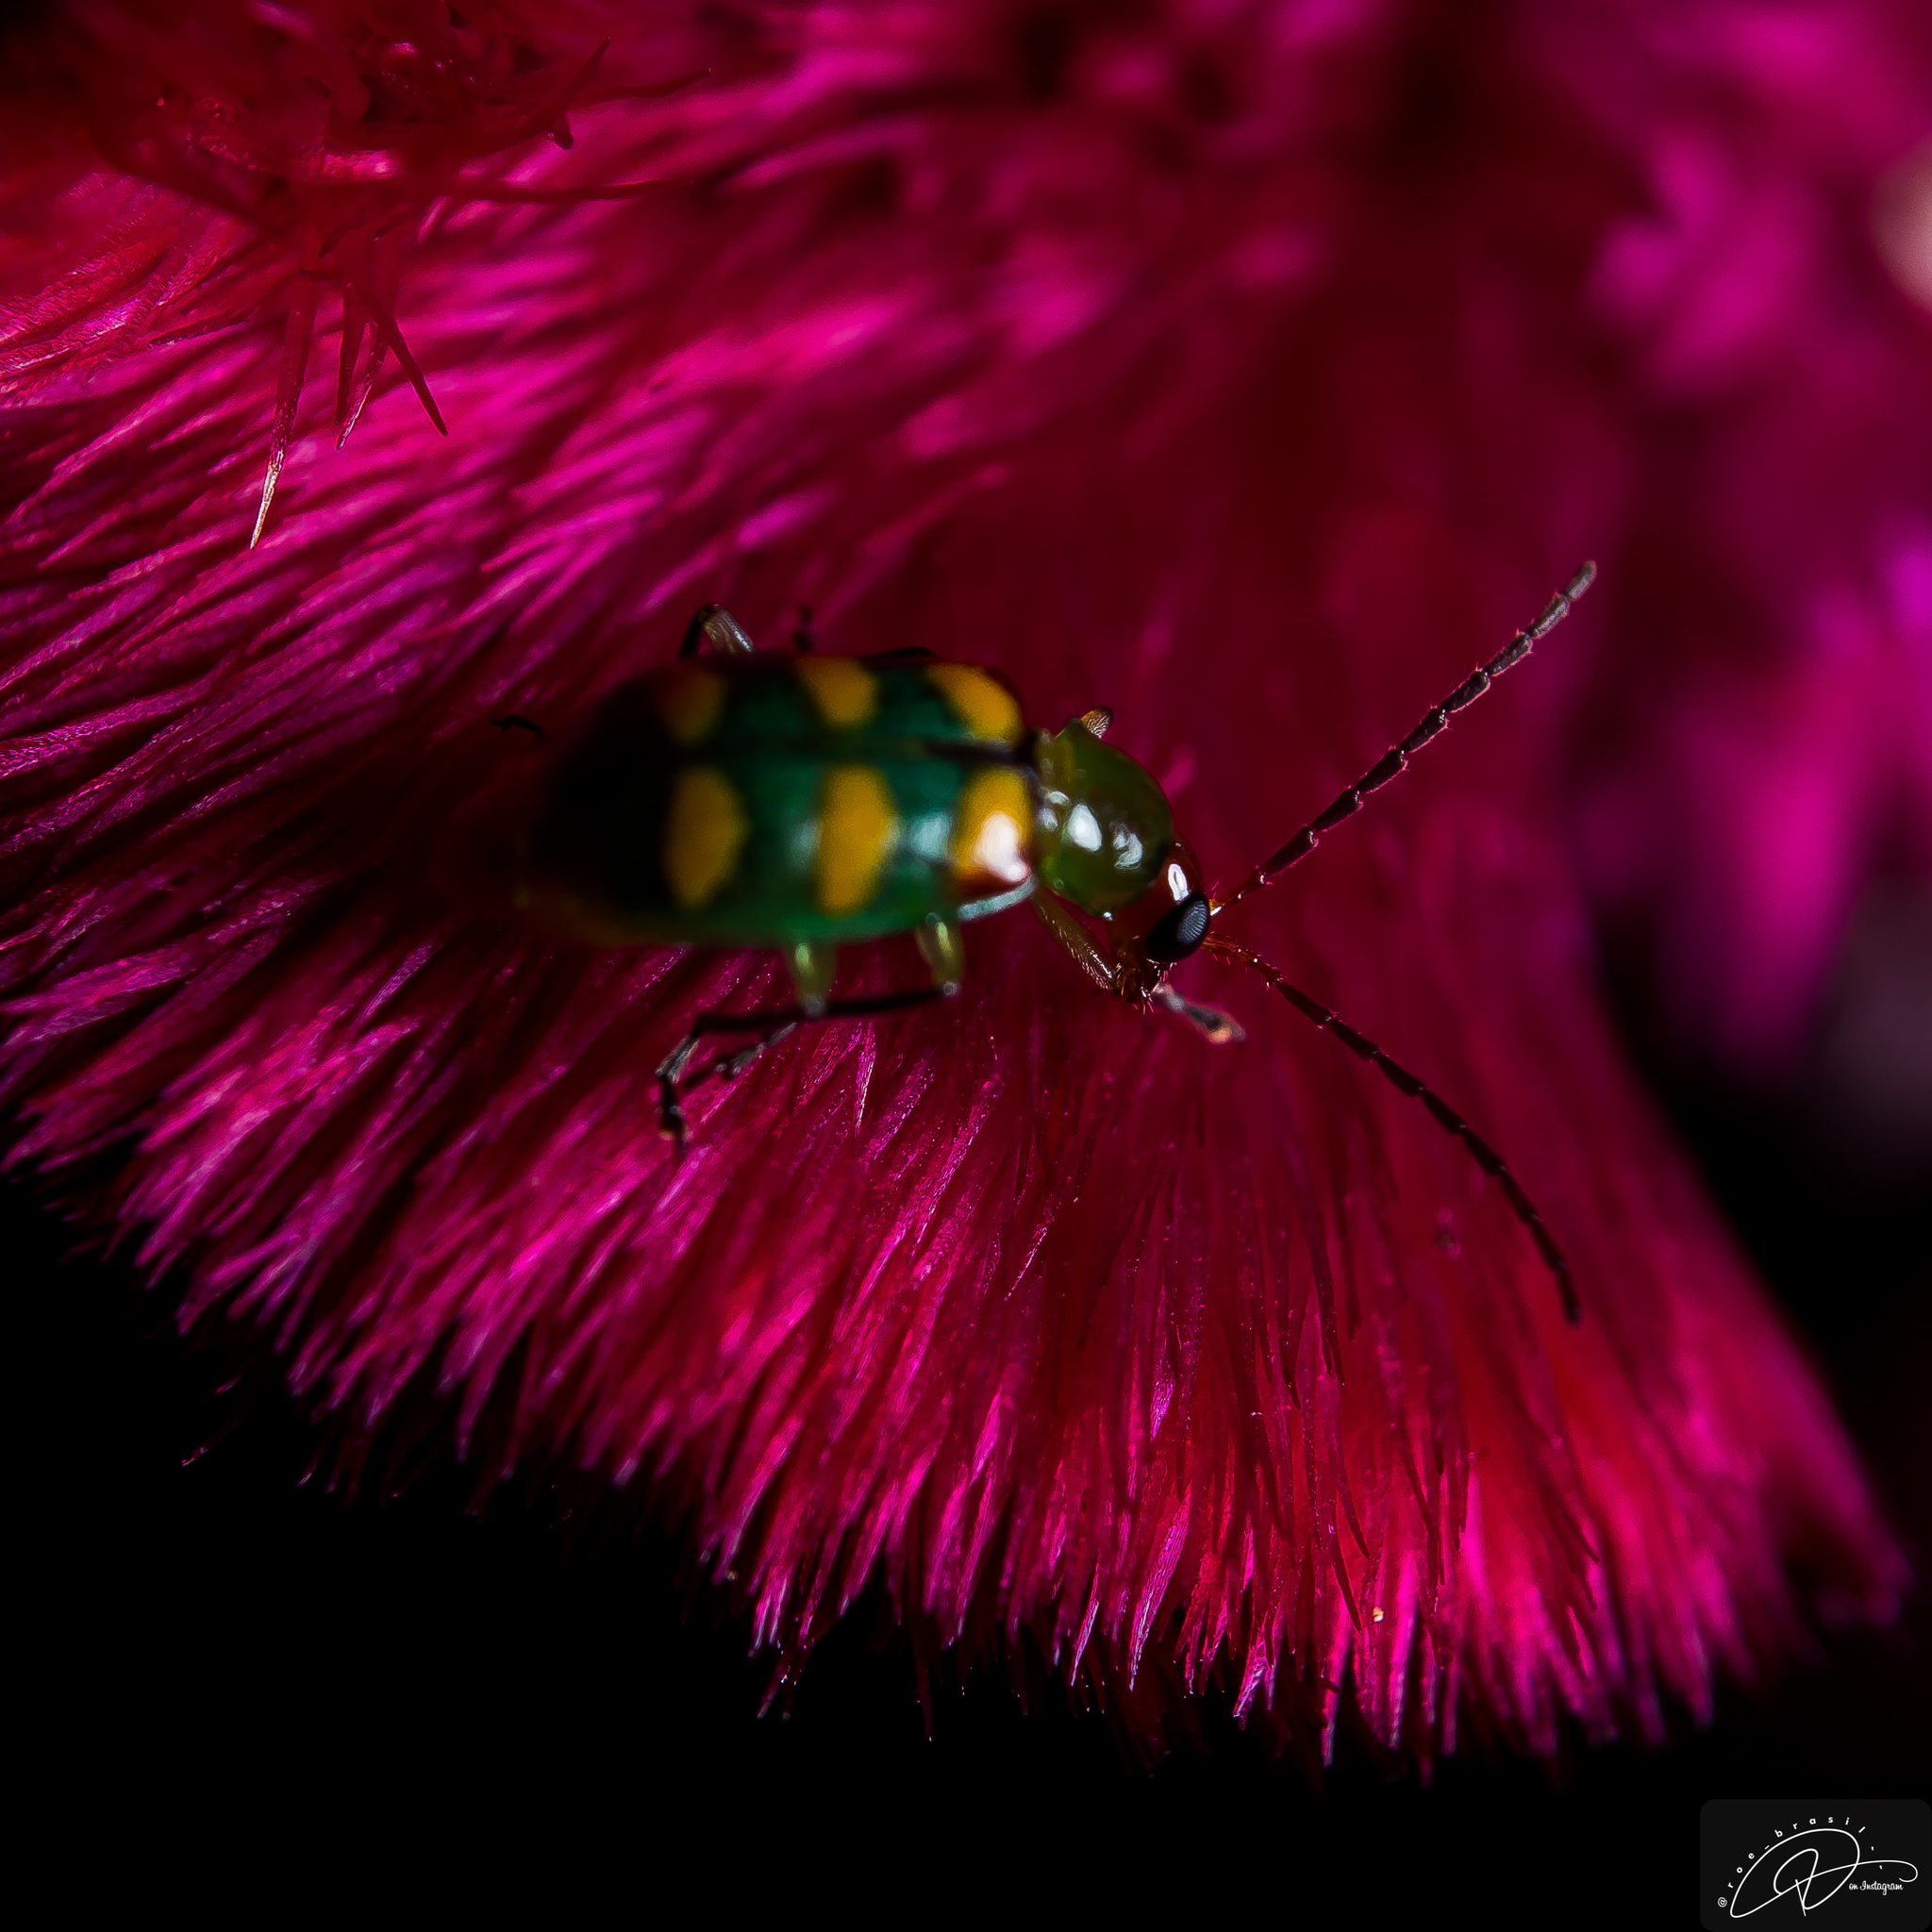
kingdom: Animalia
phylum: Arthropoda
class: Insecta
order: Coleoptera
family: Chrysomelidae
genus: Diabrotica
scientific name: Diabrotica speciosa
